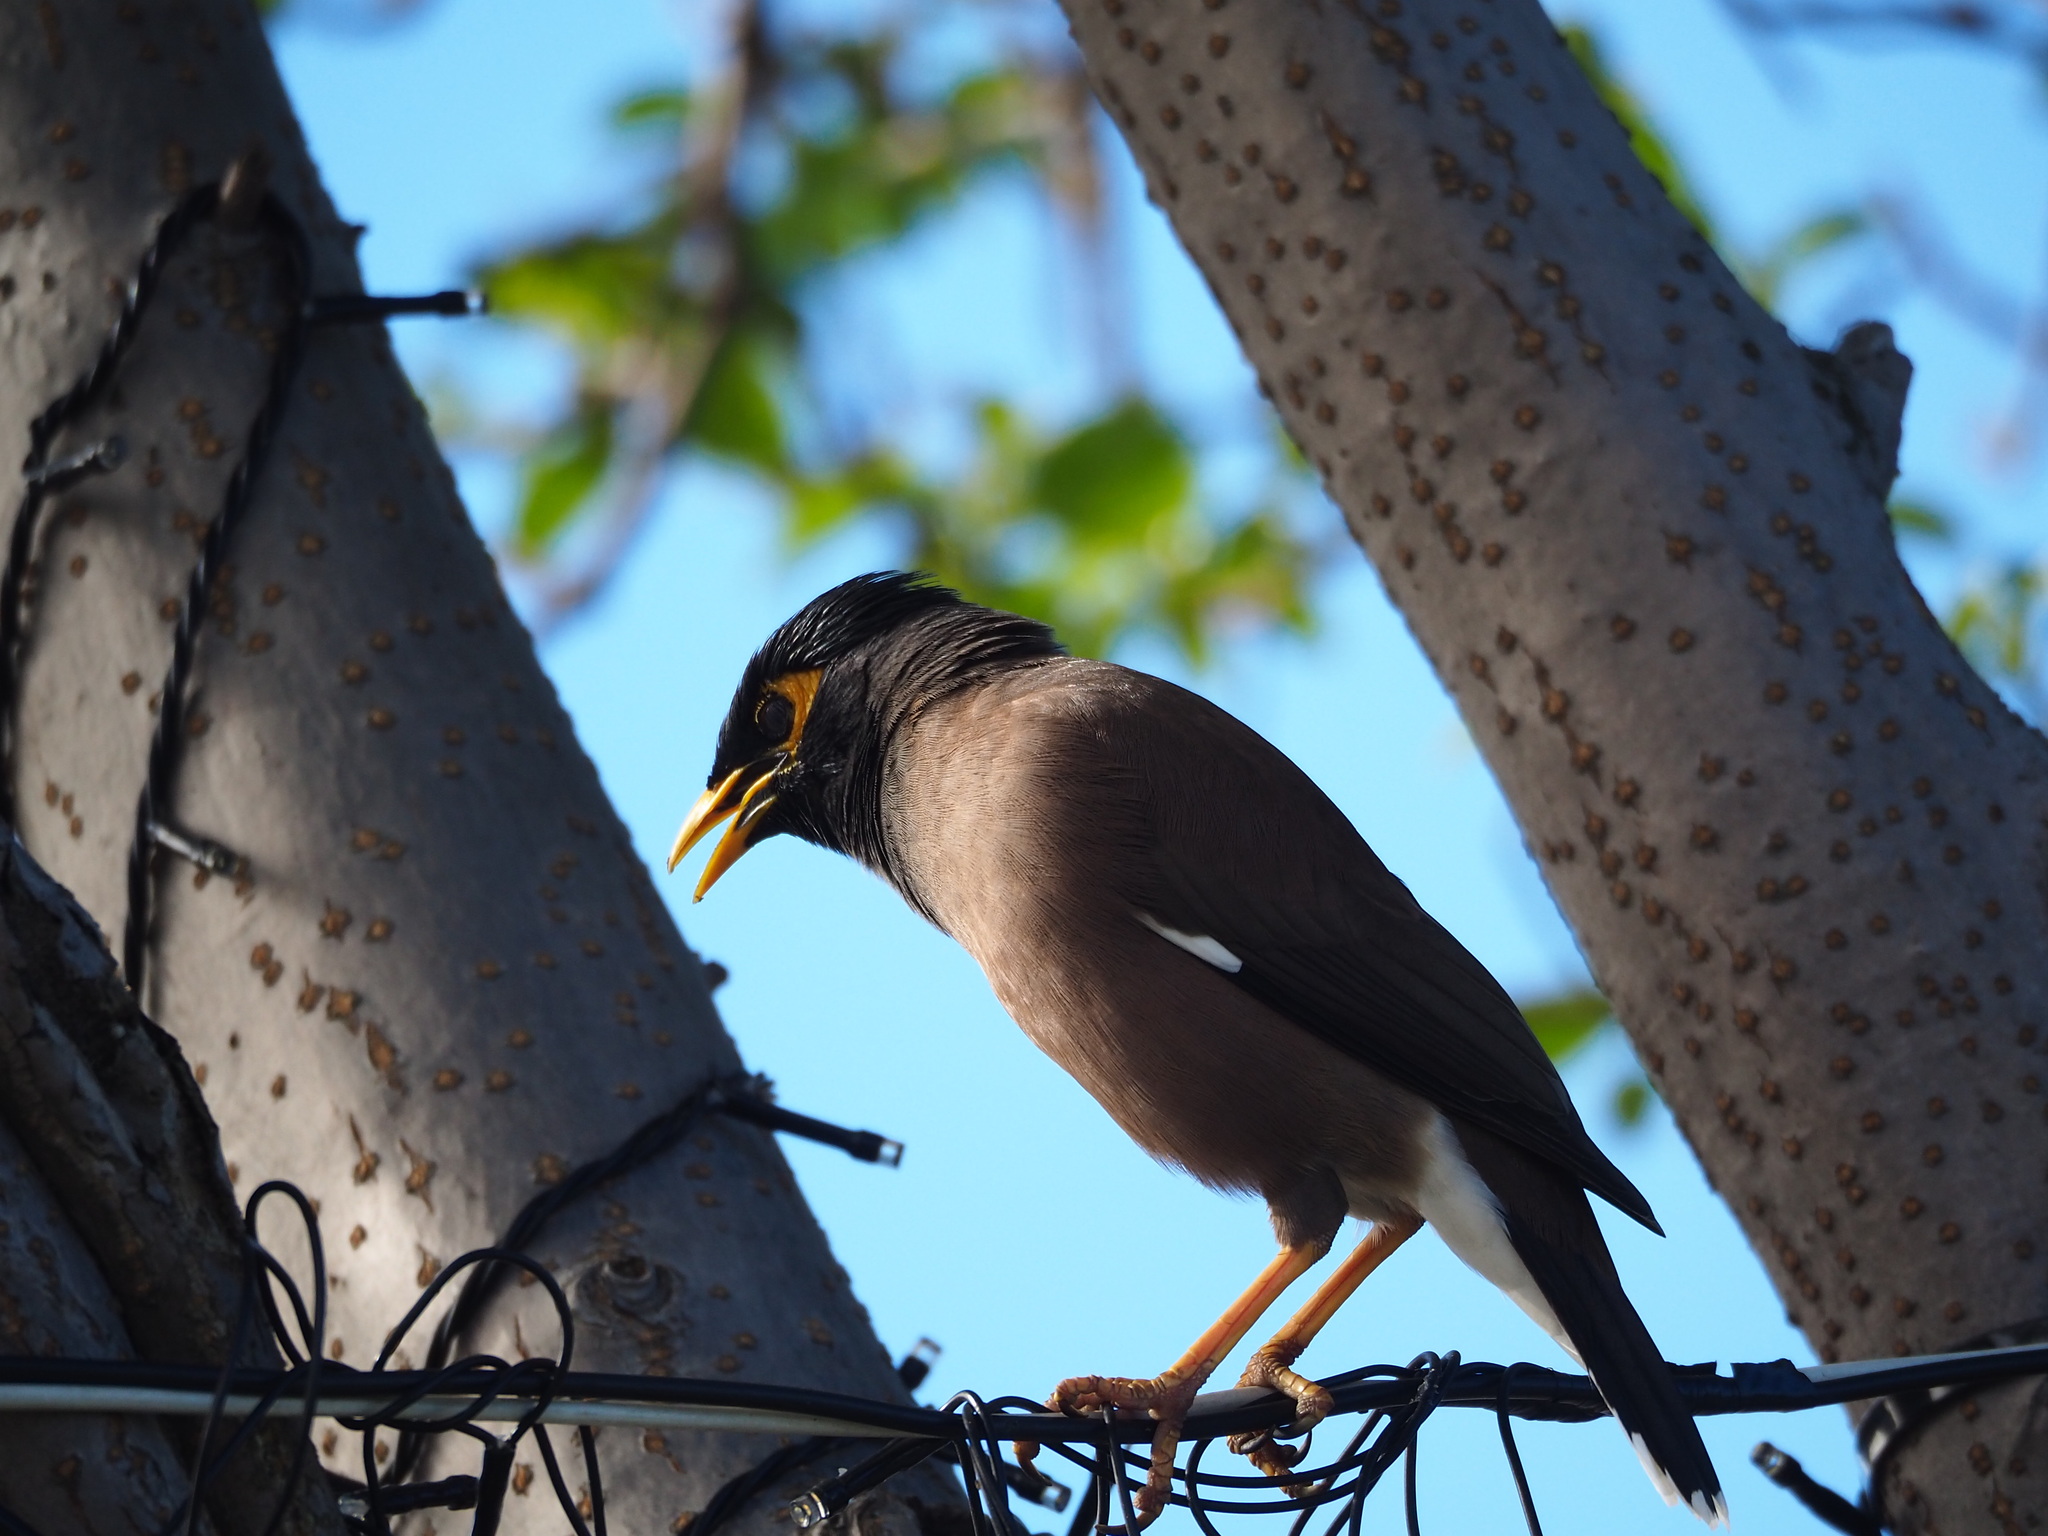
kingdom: Animalia
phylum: Chordata
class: Aves
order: Passeriformes
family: Sturnidae
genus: Acridotheres
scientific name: Acridotheres tristis
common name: Common myna
